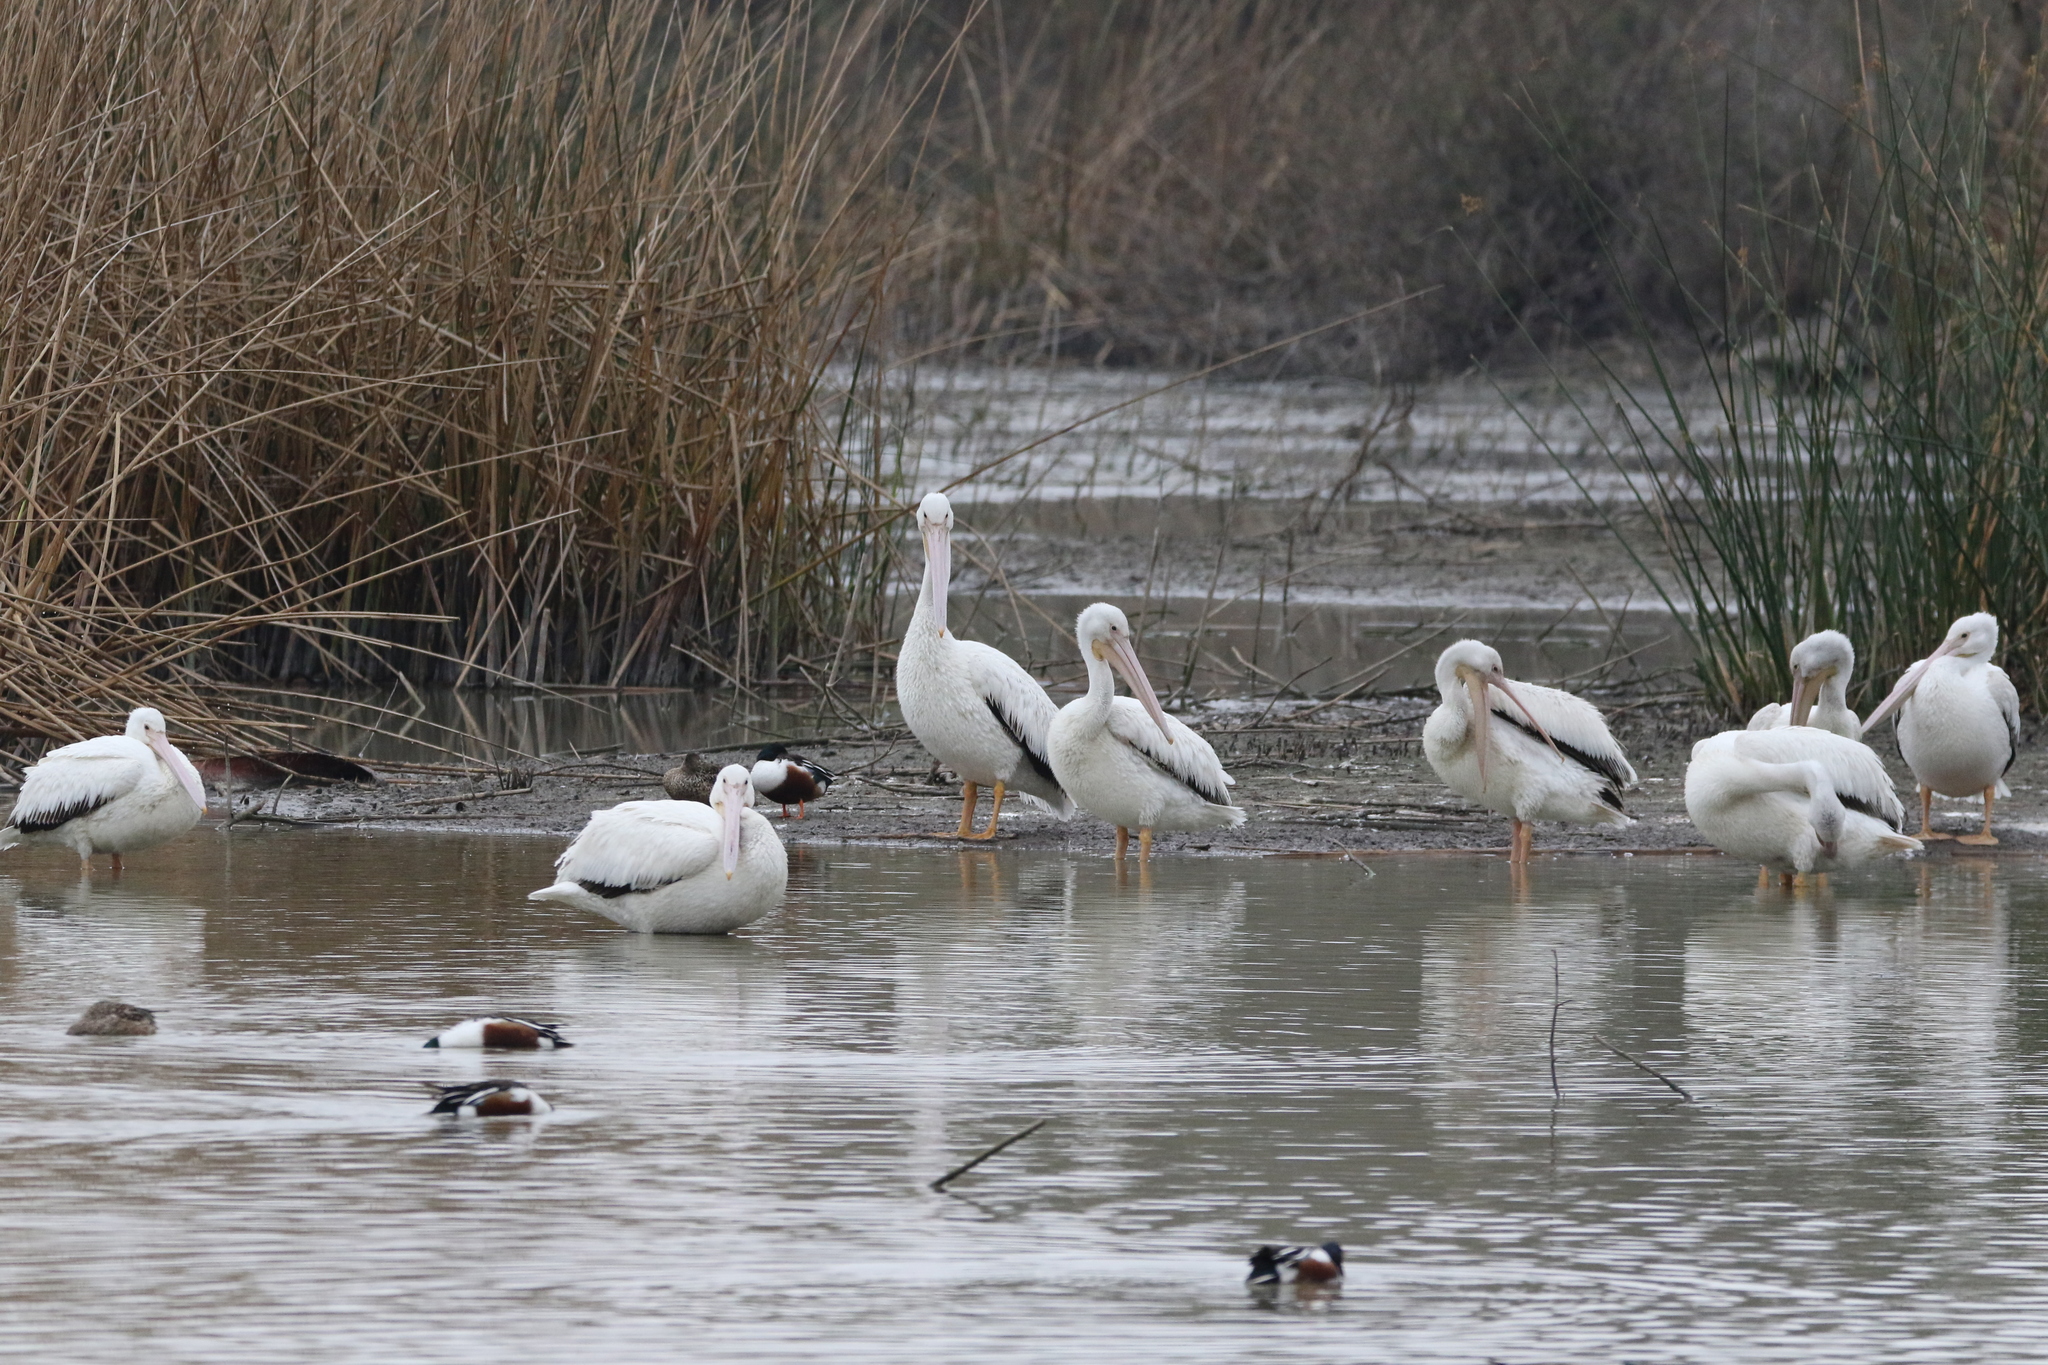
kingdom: Animalia
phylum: Chordata
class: Aves
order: Pelecaniformes
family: Pelecanidae
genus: Pelecanus
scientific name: Pelecanus erythrorhynchos
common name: American white pelican
